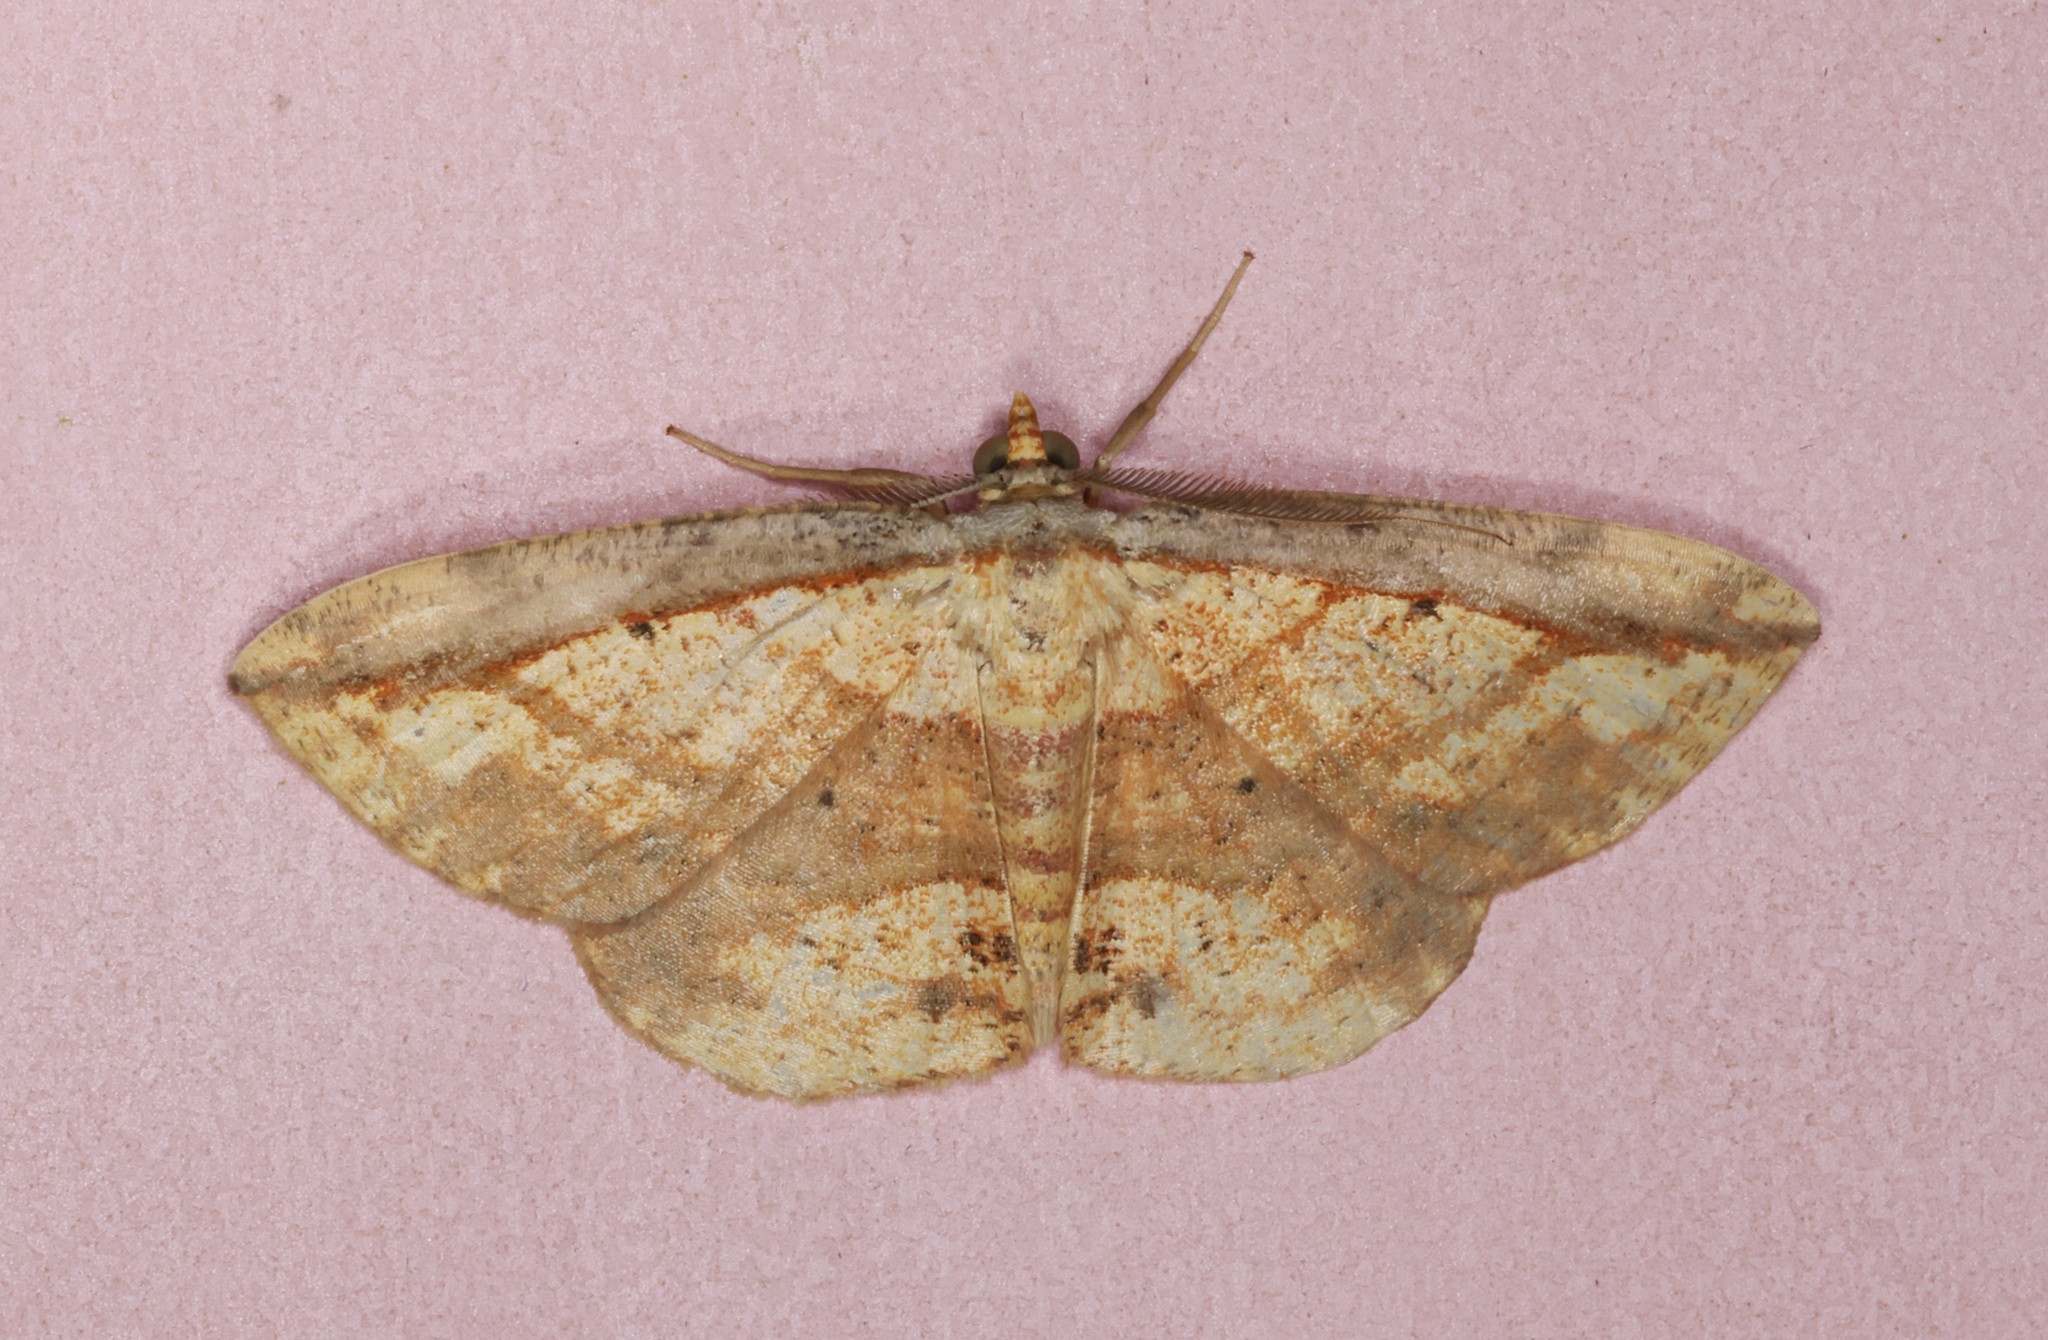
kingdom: Animalia
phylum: Arthropoda
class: Insecta
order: Lepidoptera
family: Geometridae
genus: Platycerota
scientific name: Platycerota vitticostata
